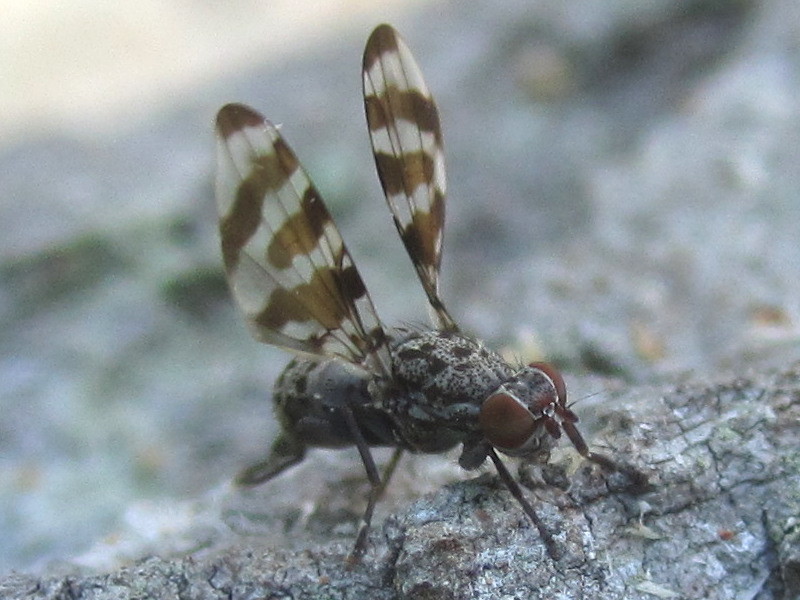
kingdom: Animalia
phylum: Arthropoda
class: Insecta
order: Diptera
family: Ulidiidae
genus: Pseudotephritis
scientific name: Pseudotephritis vau
